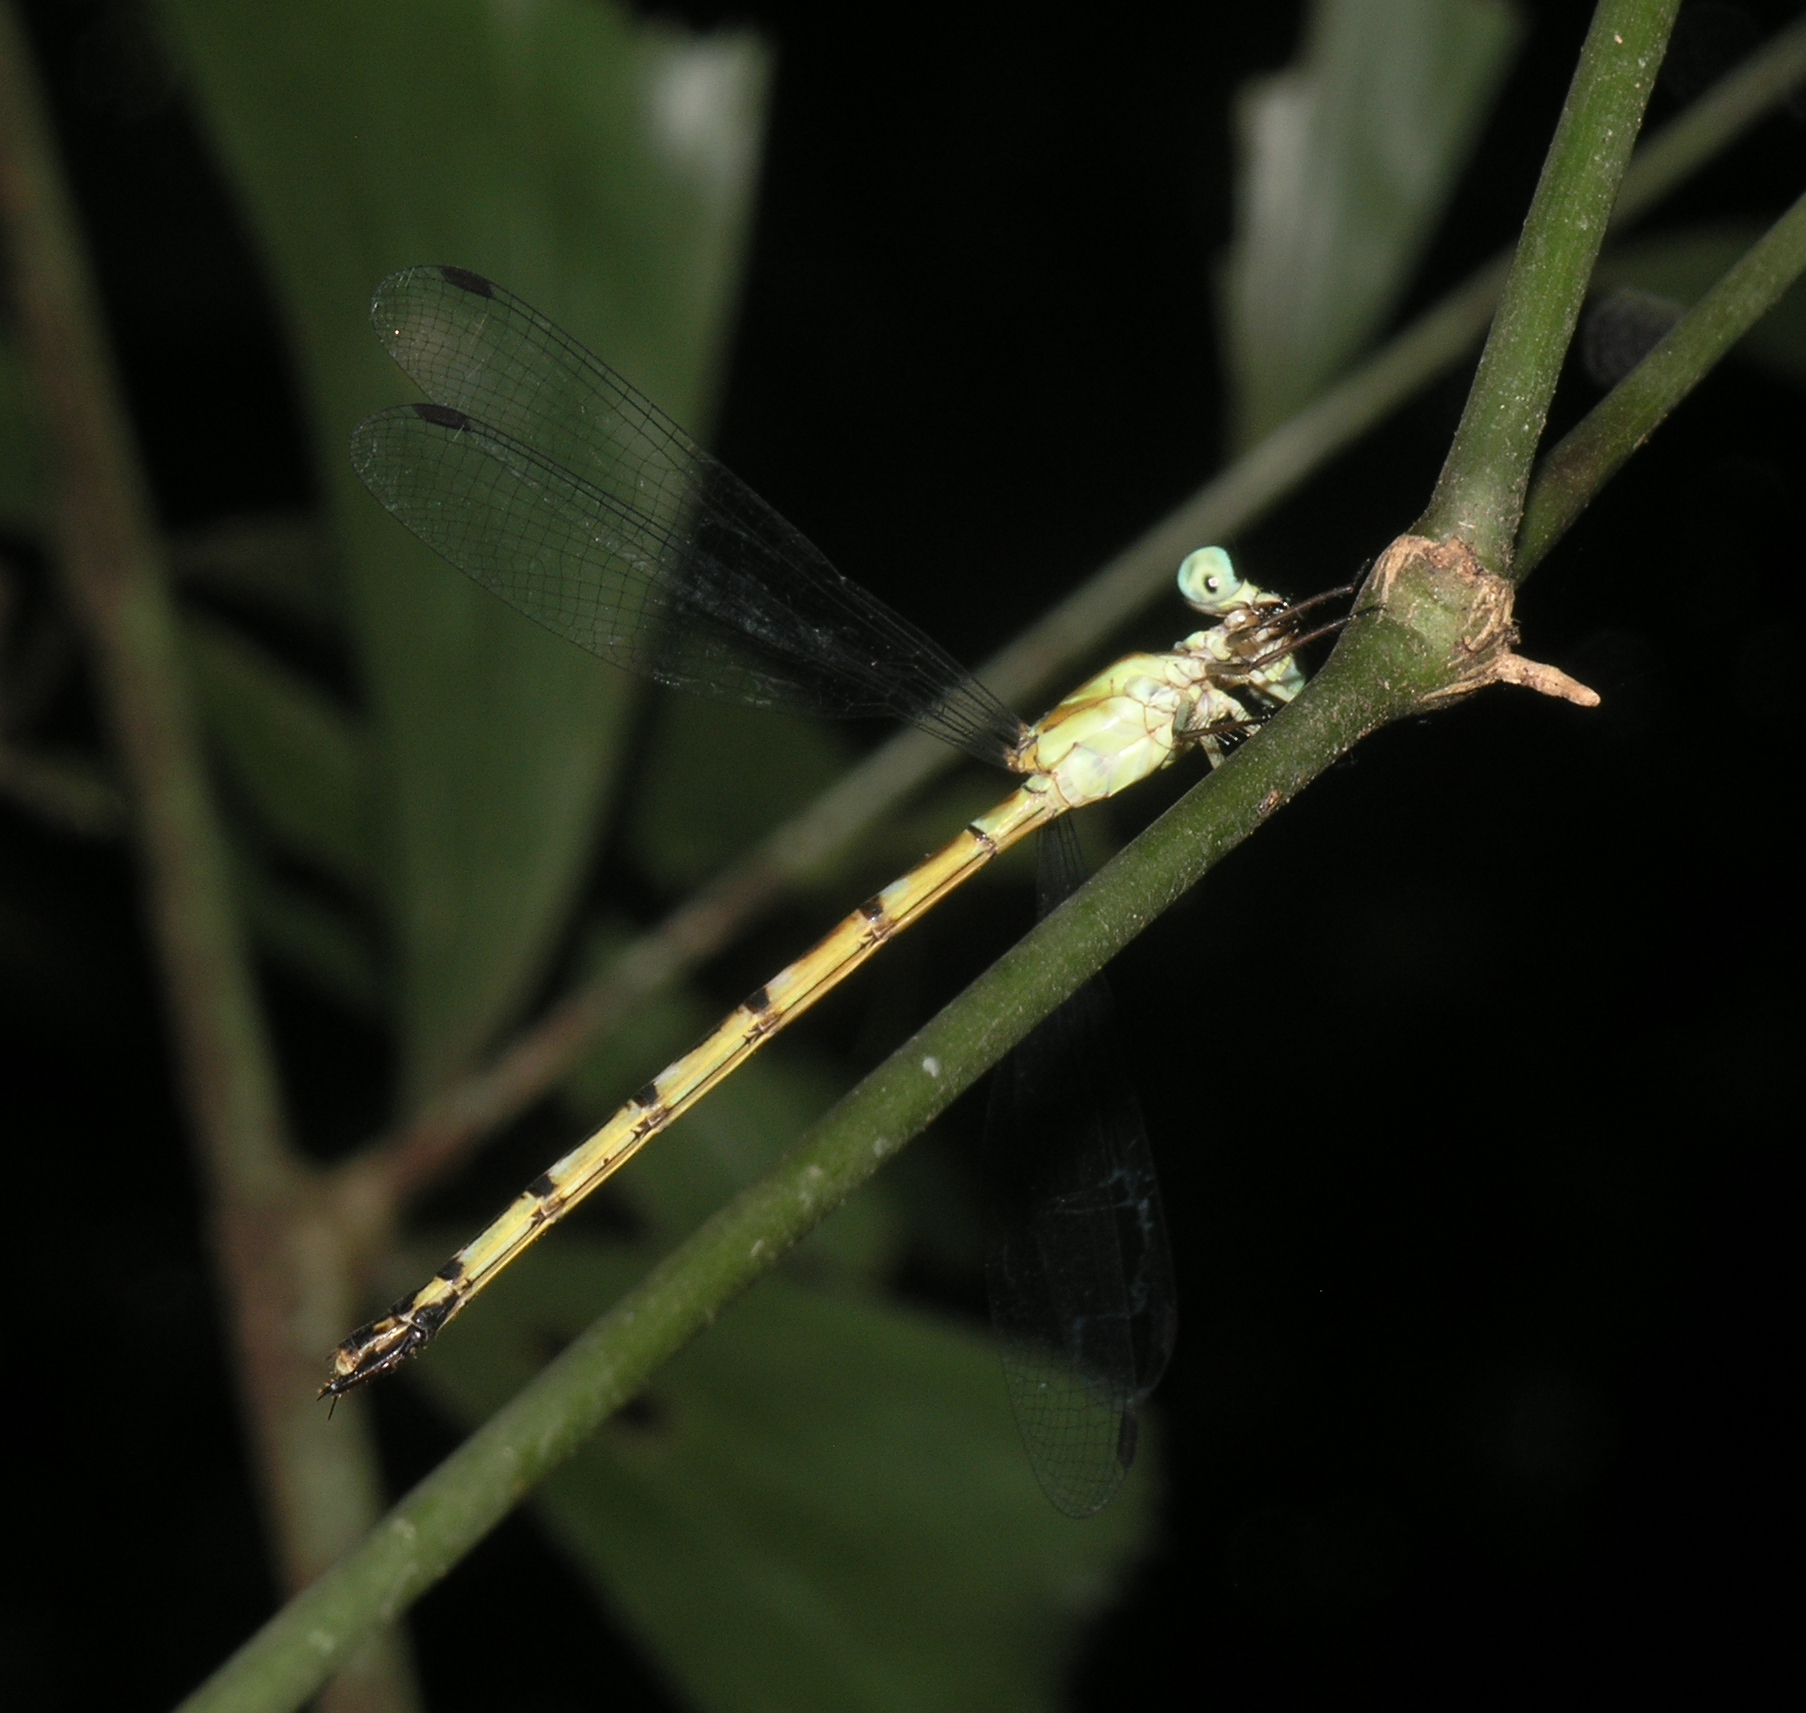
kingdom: Animalia
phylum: Arthropoda
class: Insecta
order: Odonata
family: Philosinidae
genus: Rhinagrion
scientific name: Rhinagrion hainanense
